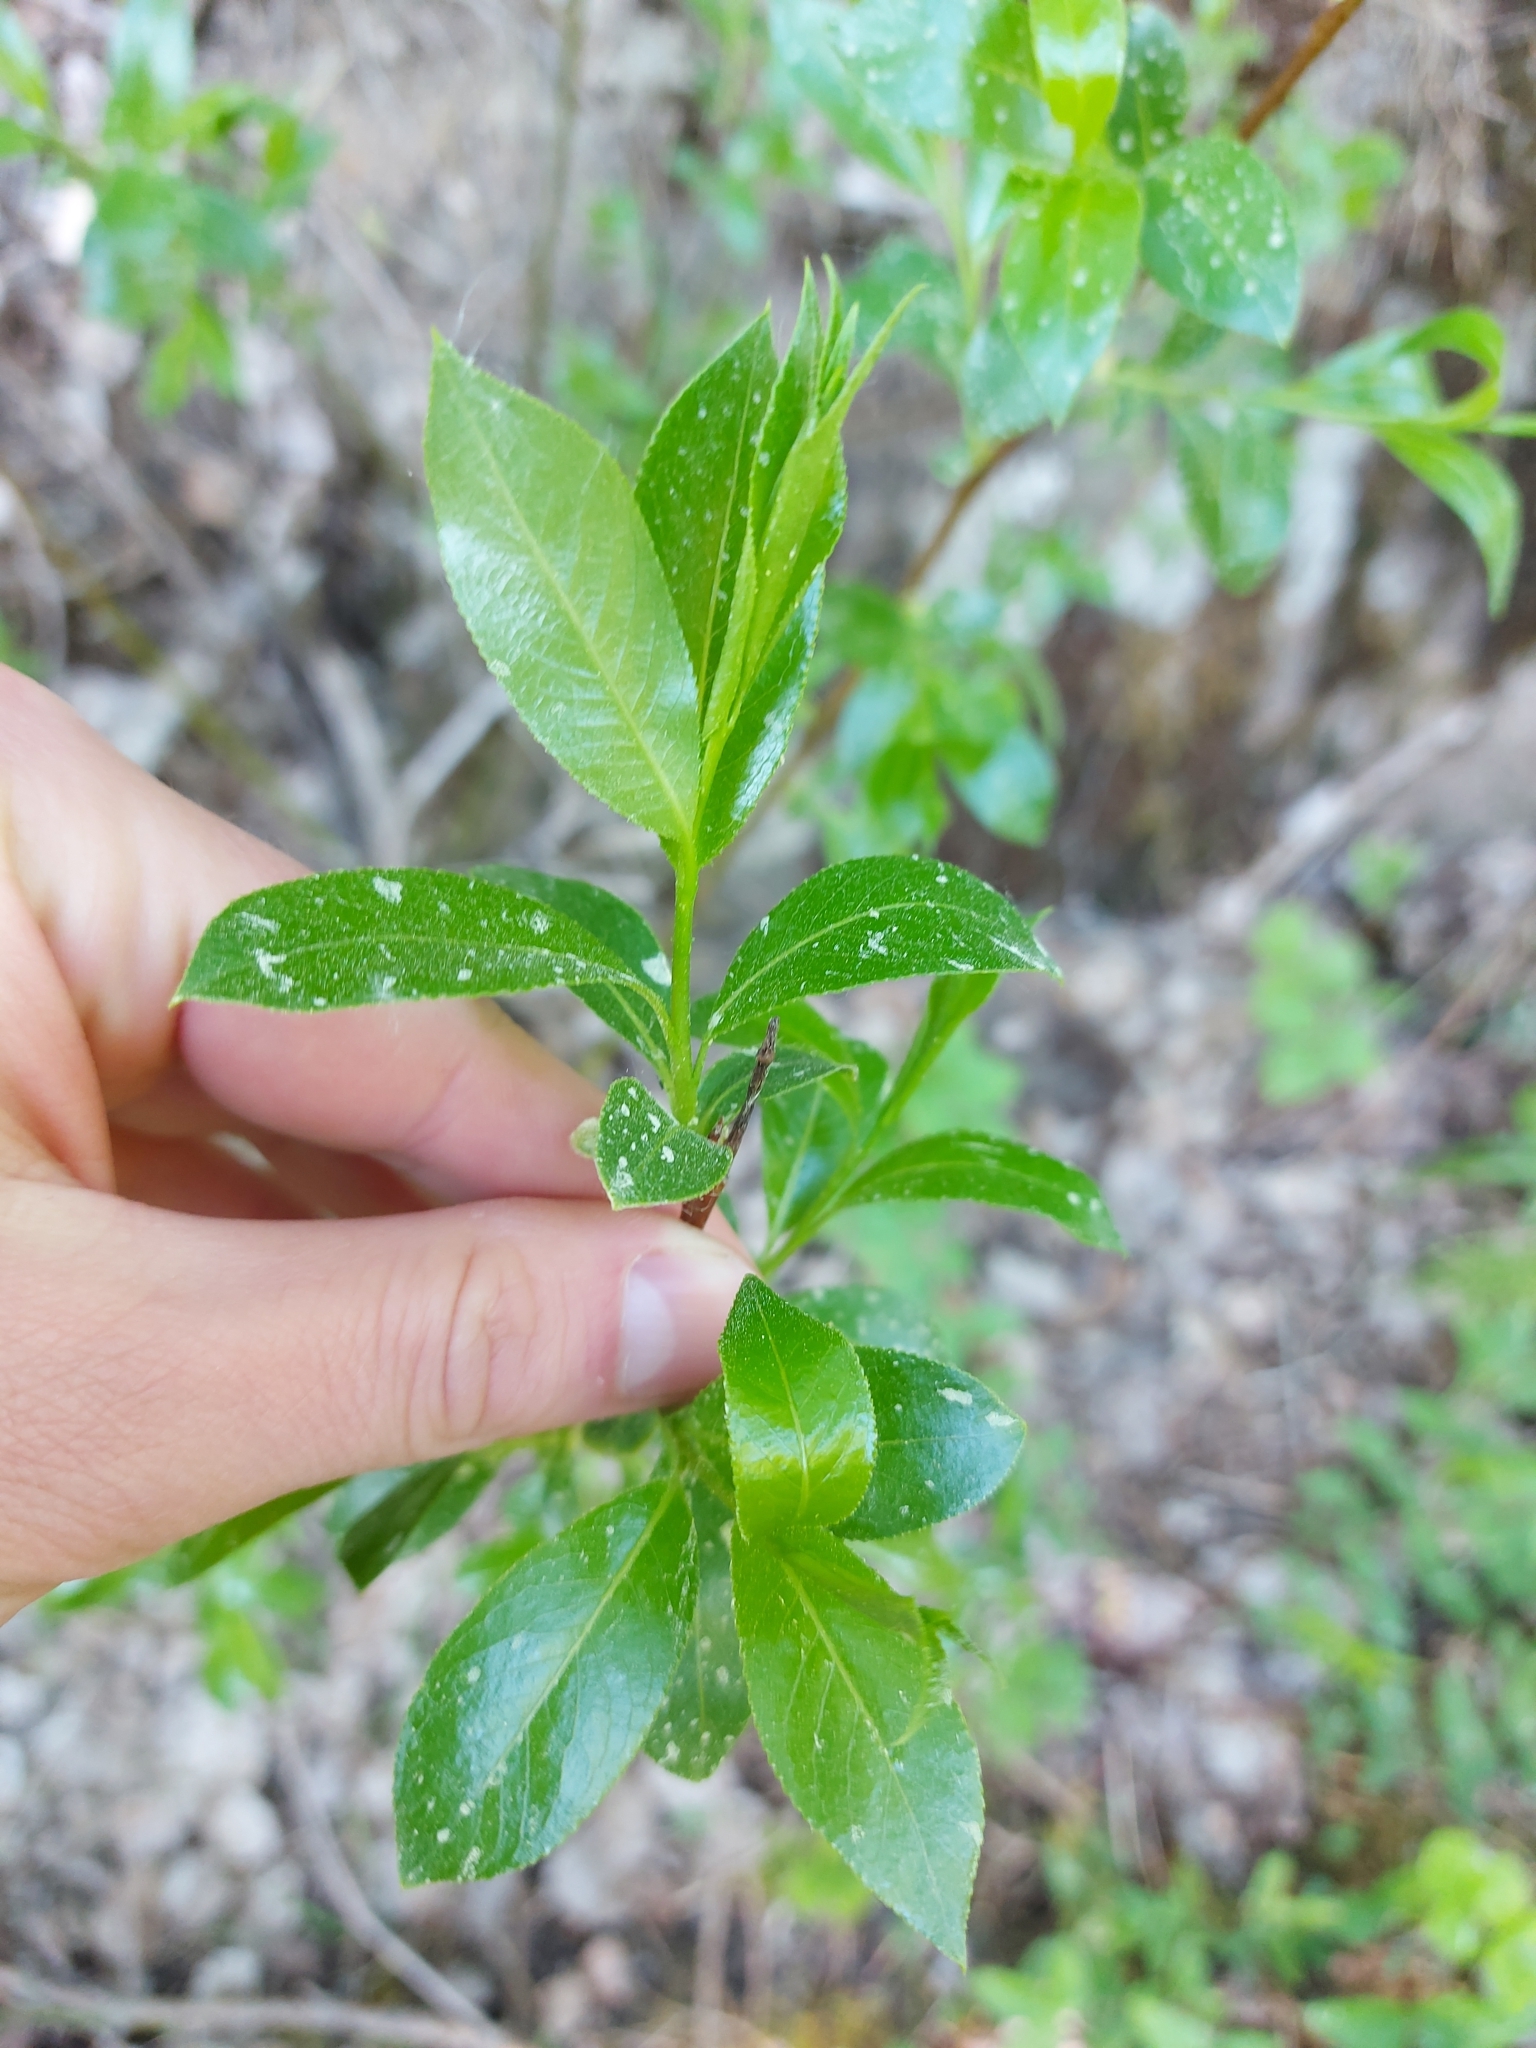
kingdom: Plantae
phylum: Tracheophyta
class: Magnoliopsida
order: Malpighiales
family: Salicaceae
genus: Salix
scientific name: Salix pentandra
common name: Bay willow
